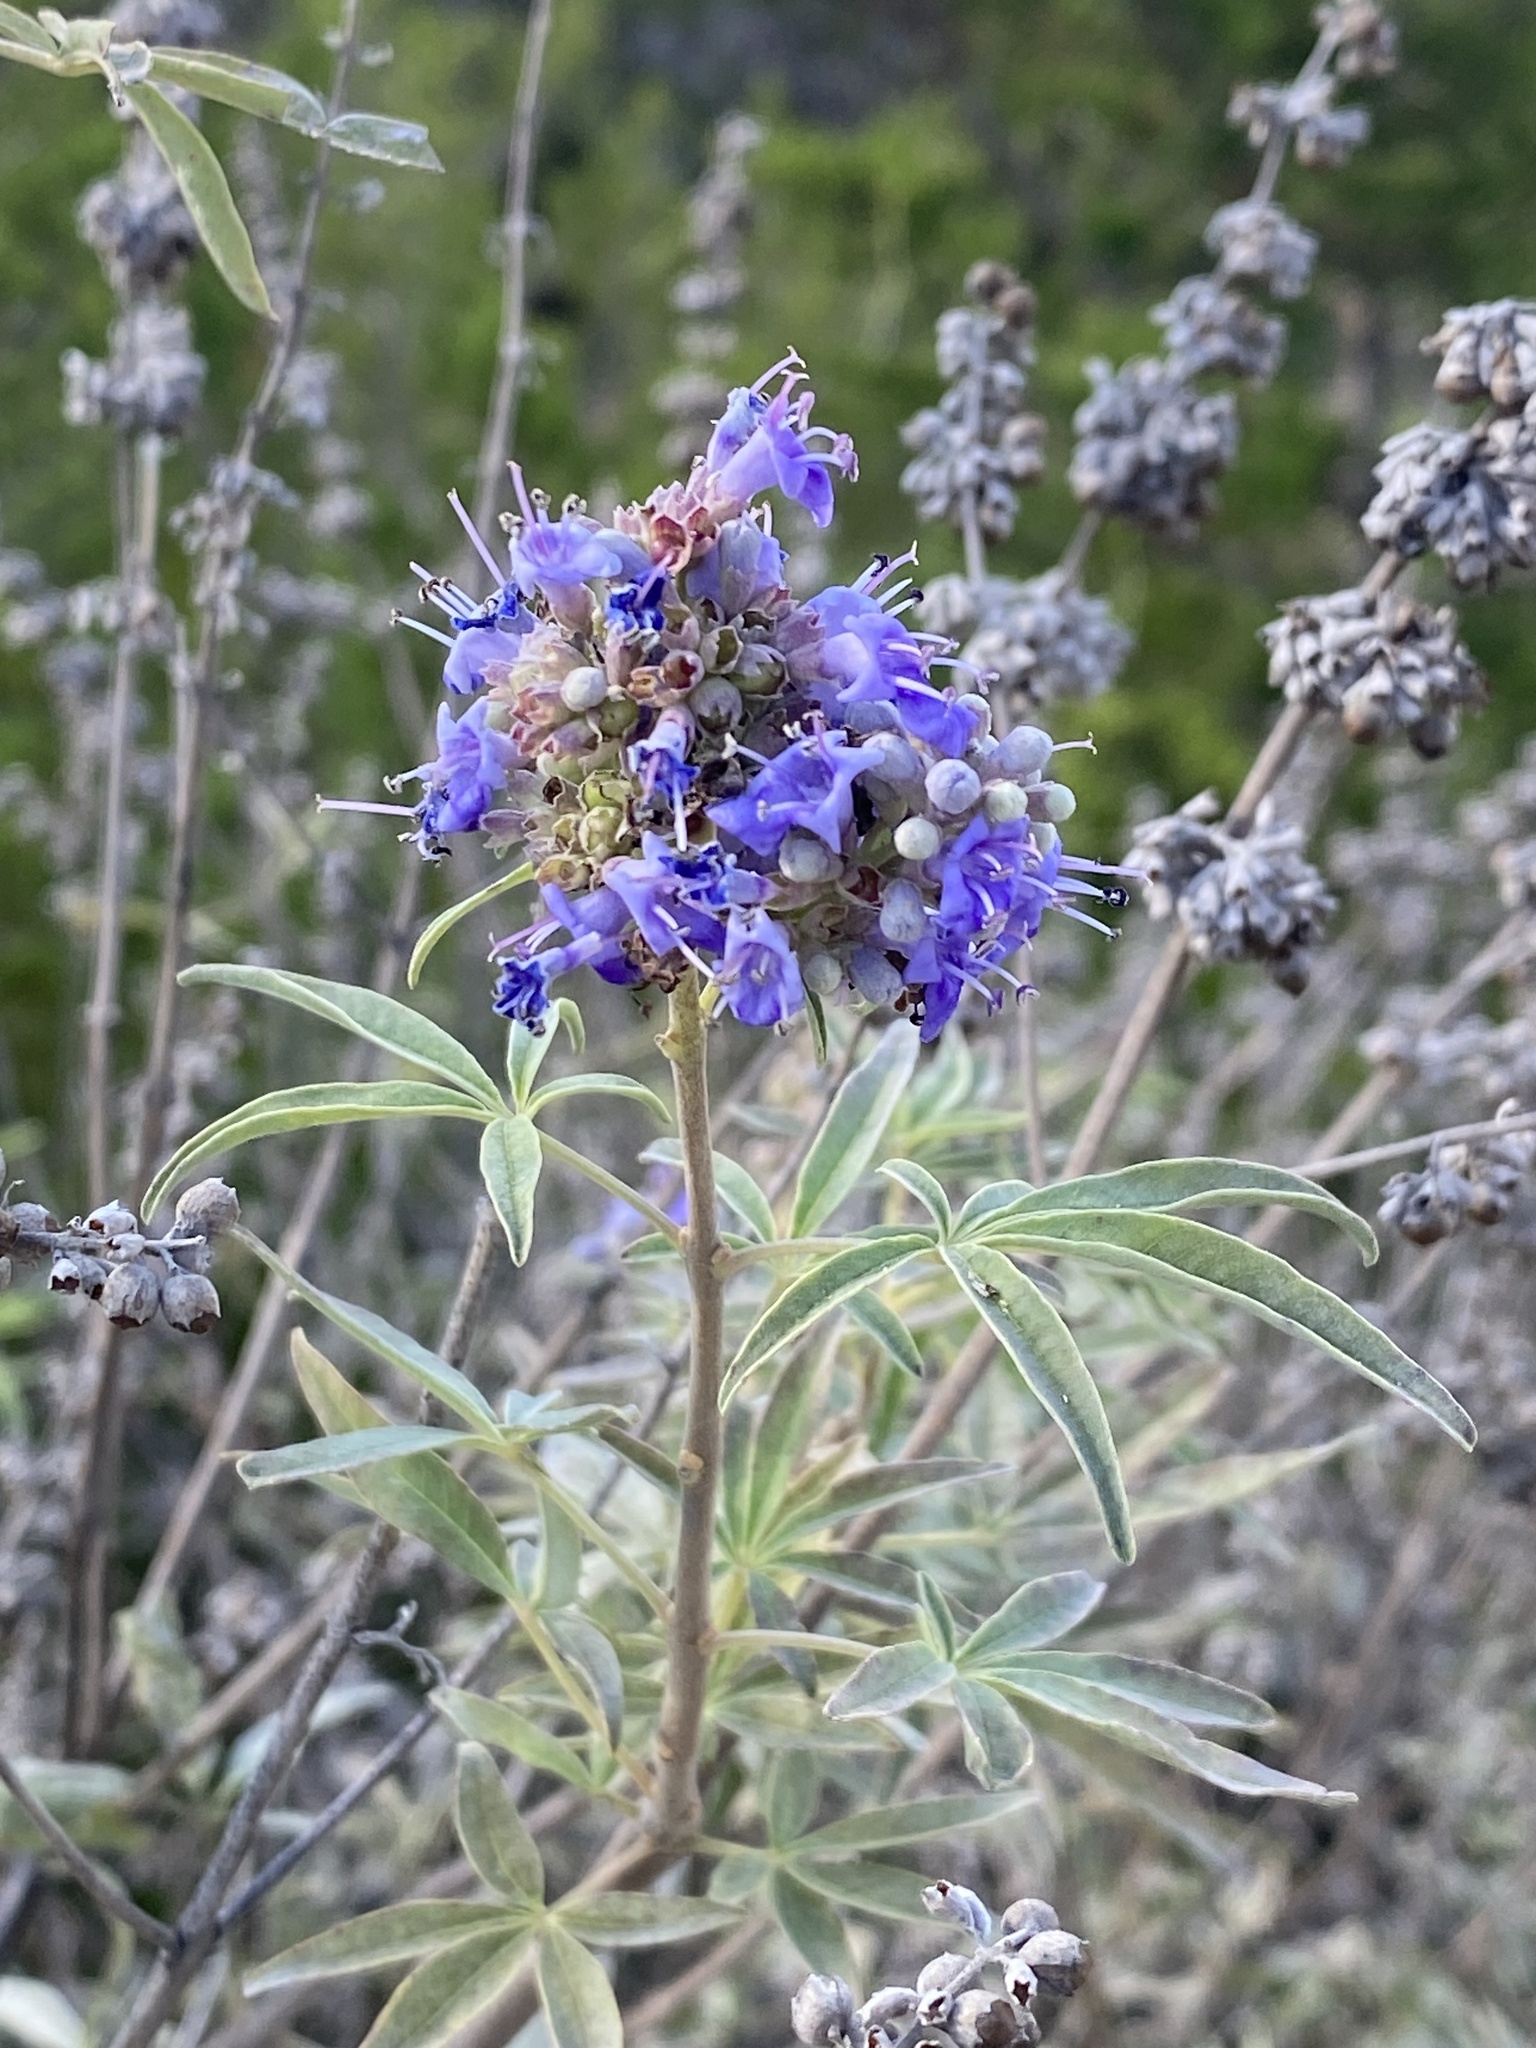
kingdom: Plantae
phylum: Tracheophyta
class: Magnoliopsida
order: Lamiales
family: Lamiaceae
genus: Vitex
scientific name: Vitex agnus-castus
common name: Chasteberry
